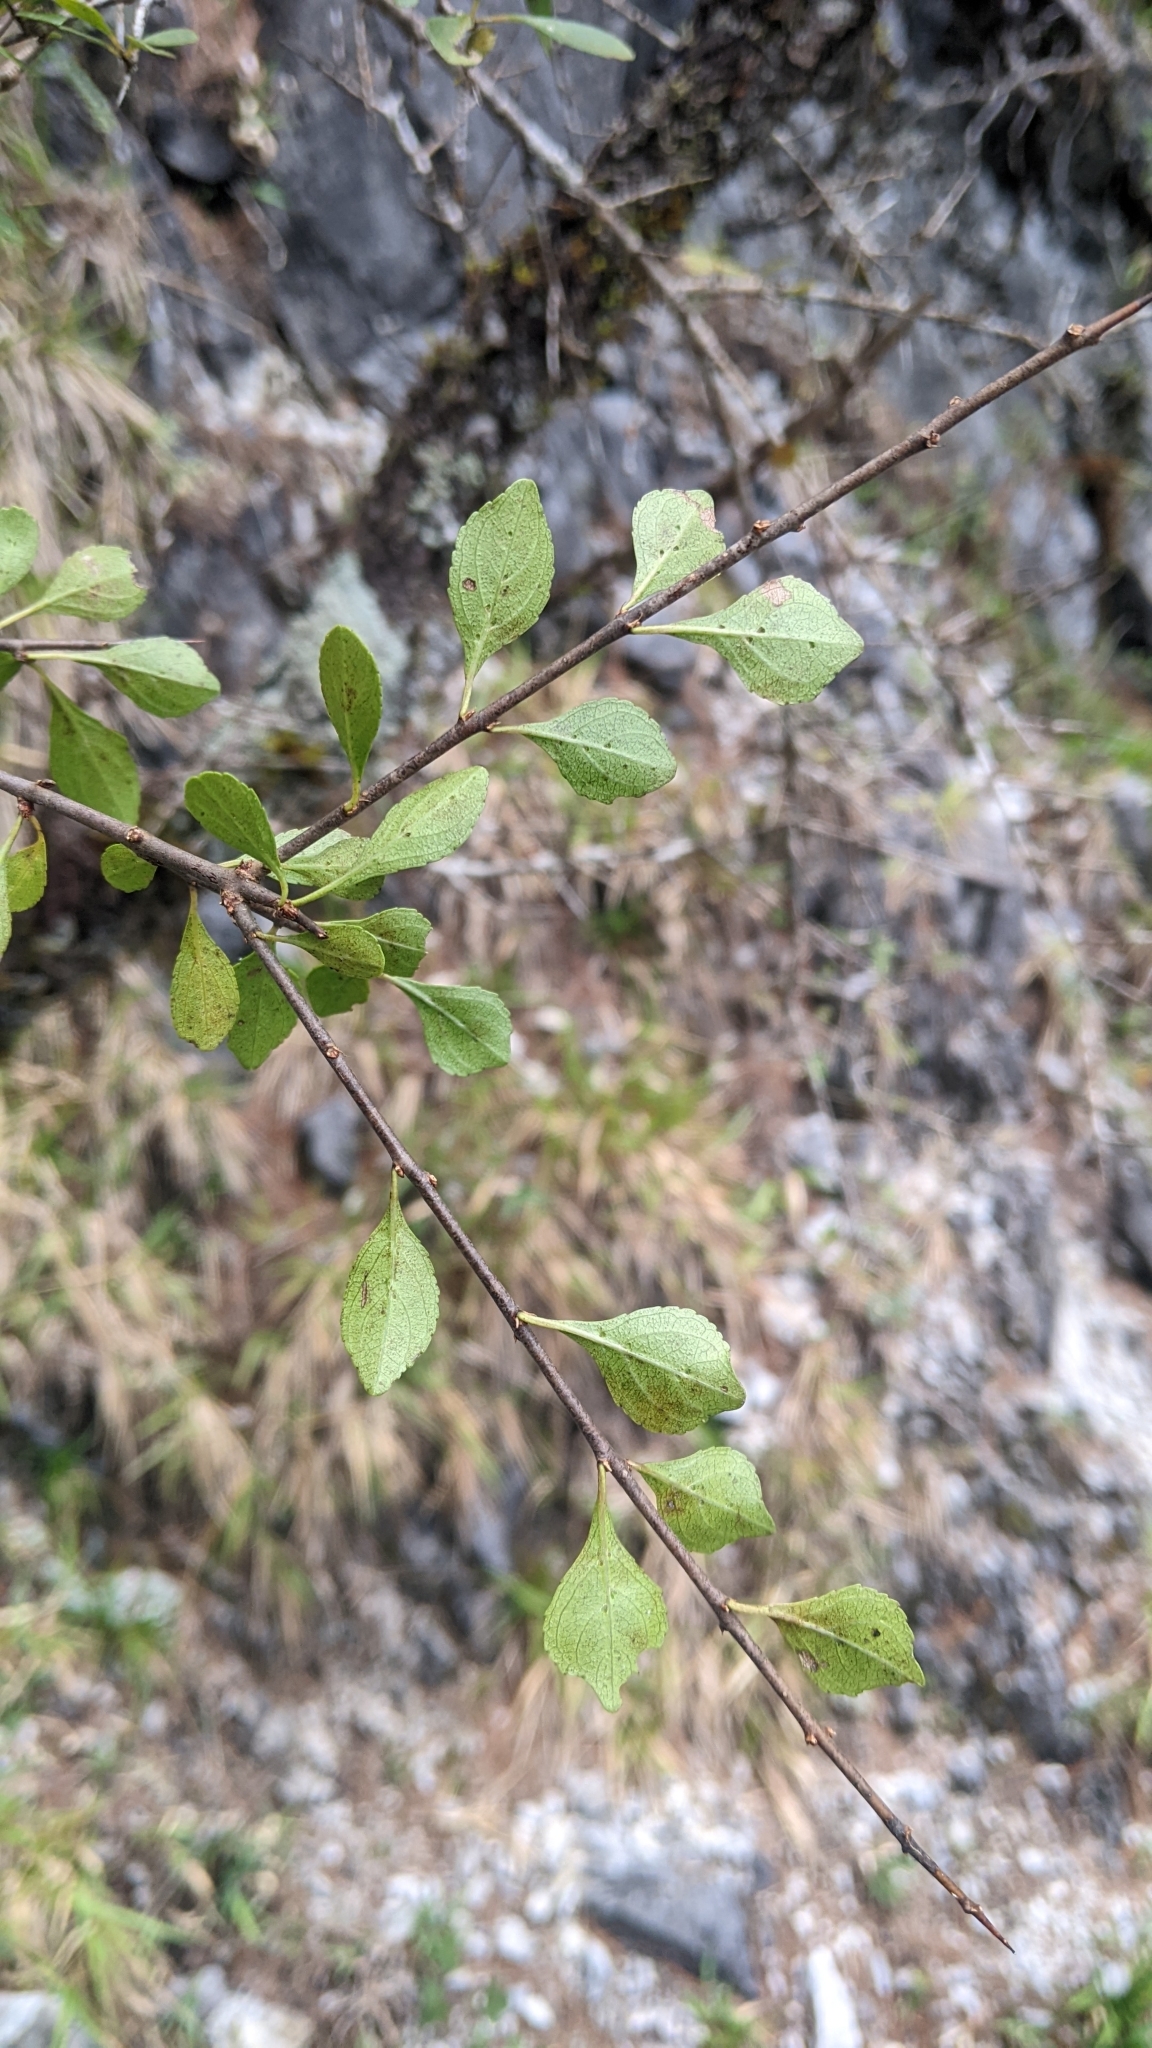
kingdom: Plantae
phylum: Tracheophyta
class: Magnoliopsida
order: Rosales
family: Rhamnaceae
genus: Rhamnus
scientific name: Rhamnus parvifolia
